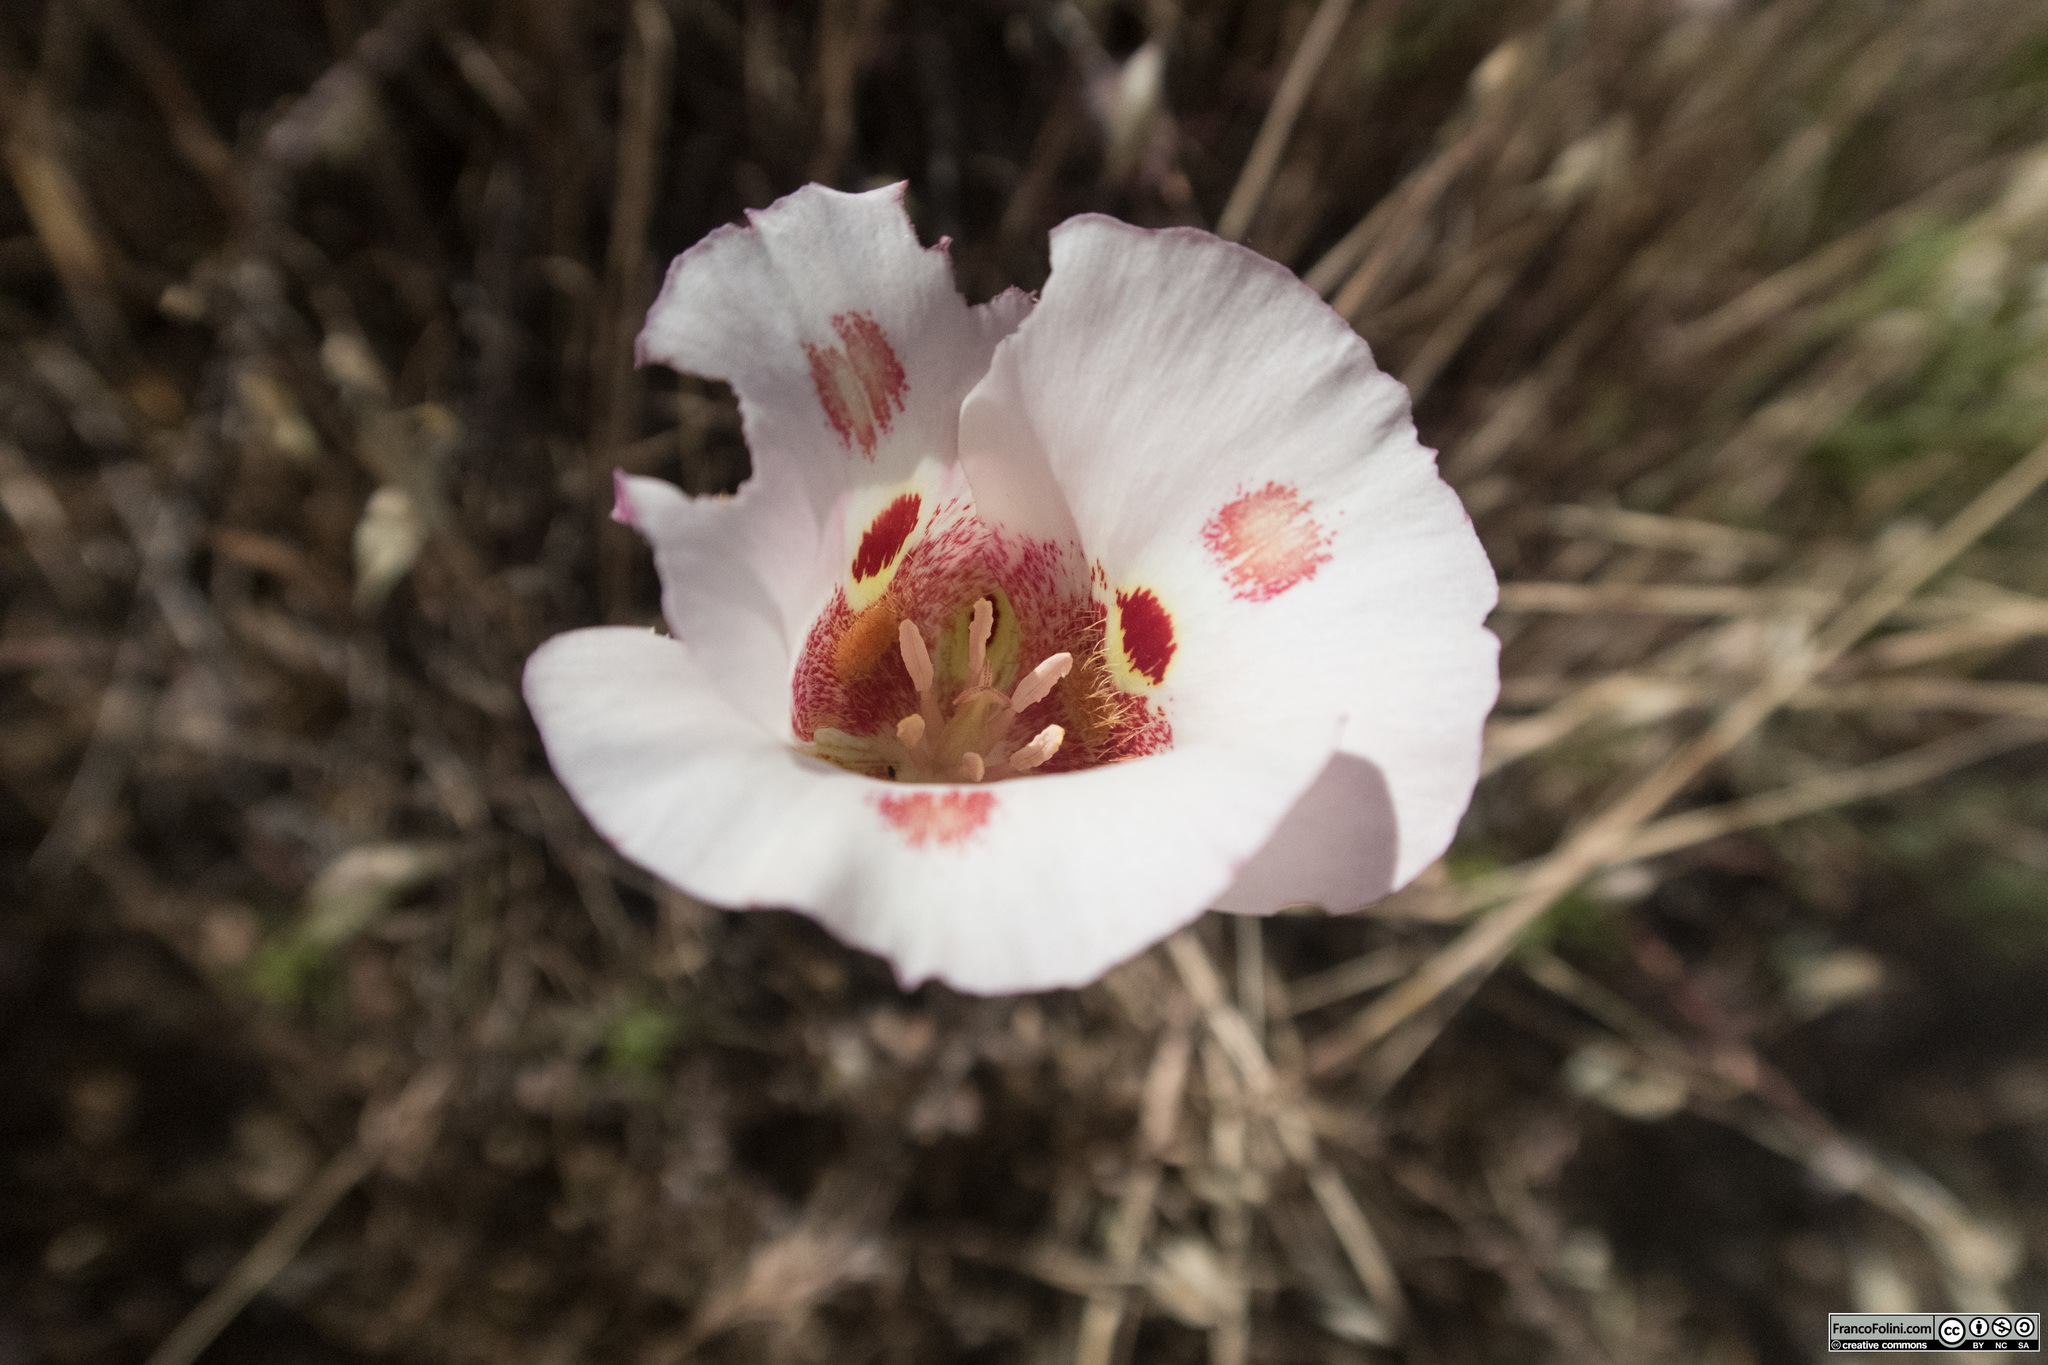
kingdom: Plantae
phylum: Tracheophyta
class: Liliopsida
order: Liliales
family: Liliaceae
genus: Calochortus
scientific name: Calochortus venustus
